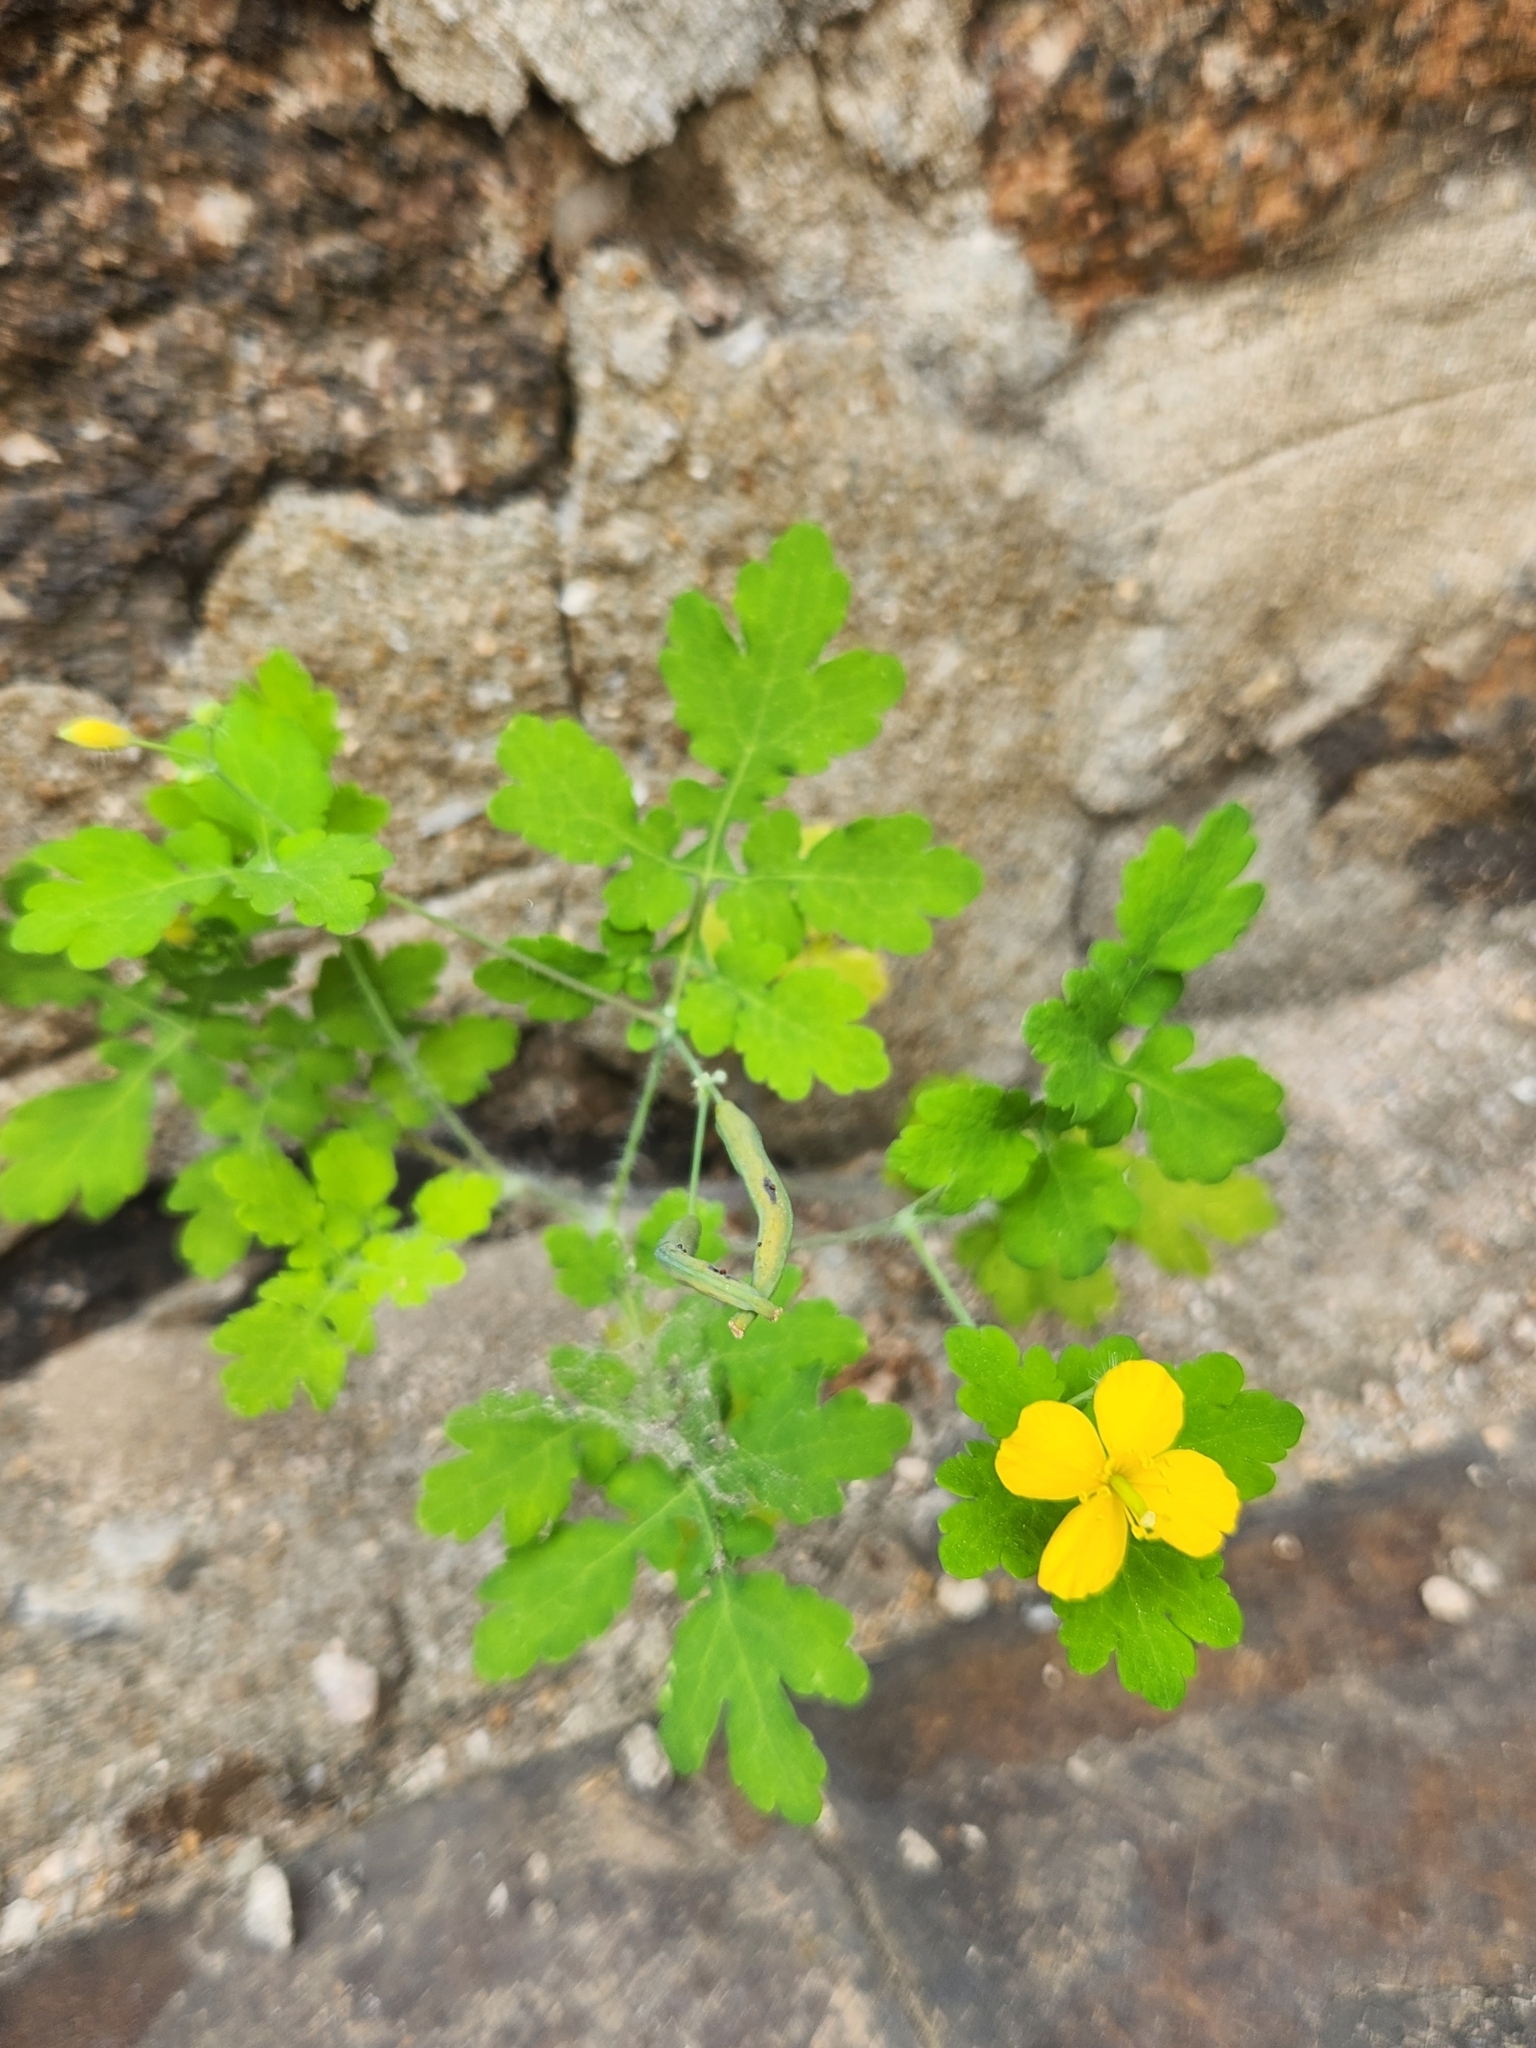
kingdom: Plantae
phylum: Tracheophyta
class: Magnoliopsida
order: Ranunculales
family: Papaveraceae
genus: Chelidonium
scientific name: Chelidonium majus
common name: Greater celandine
